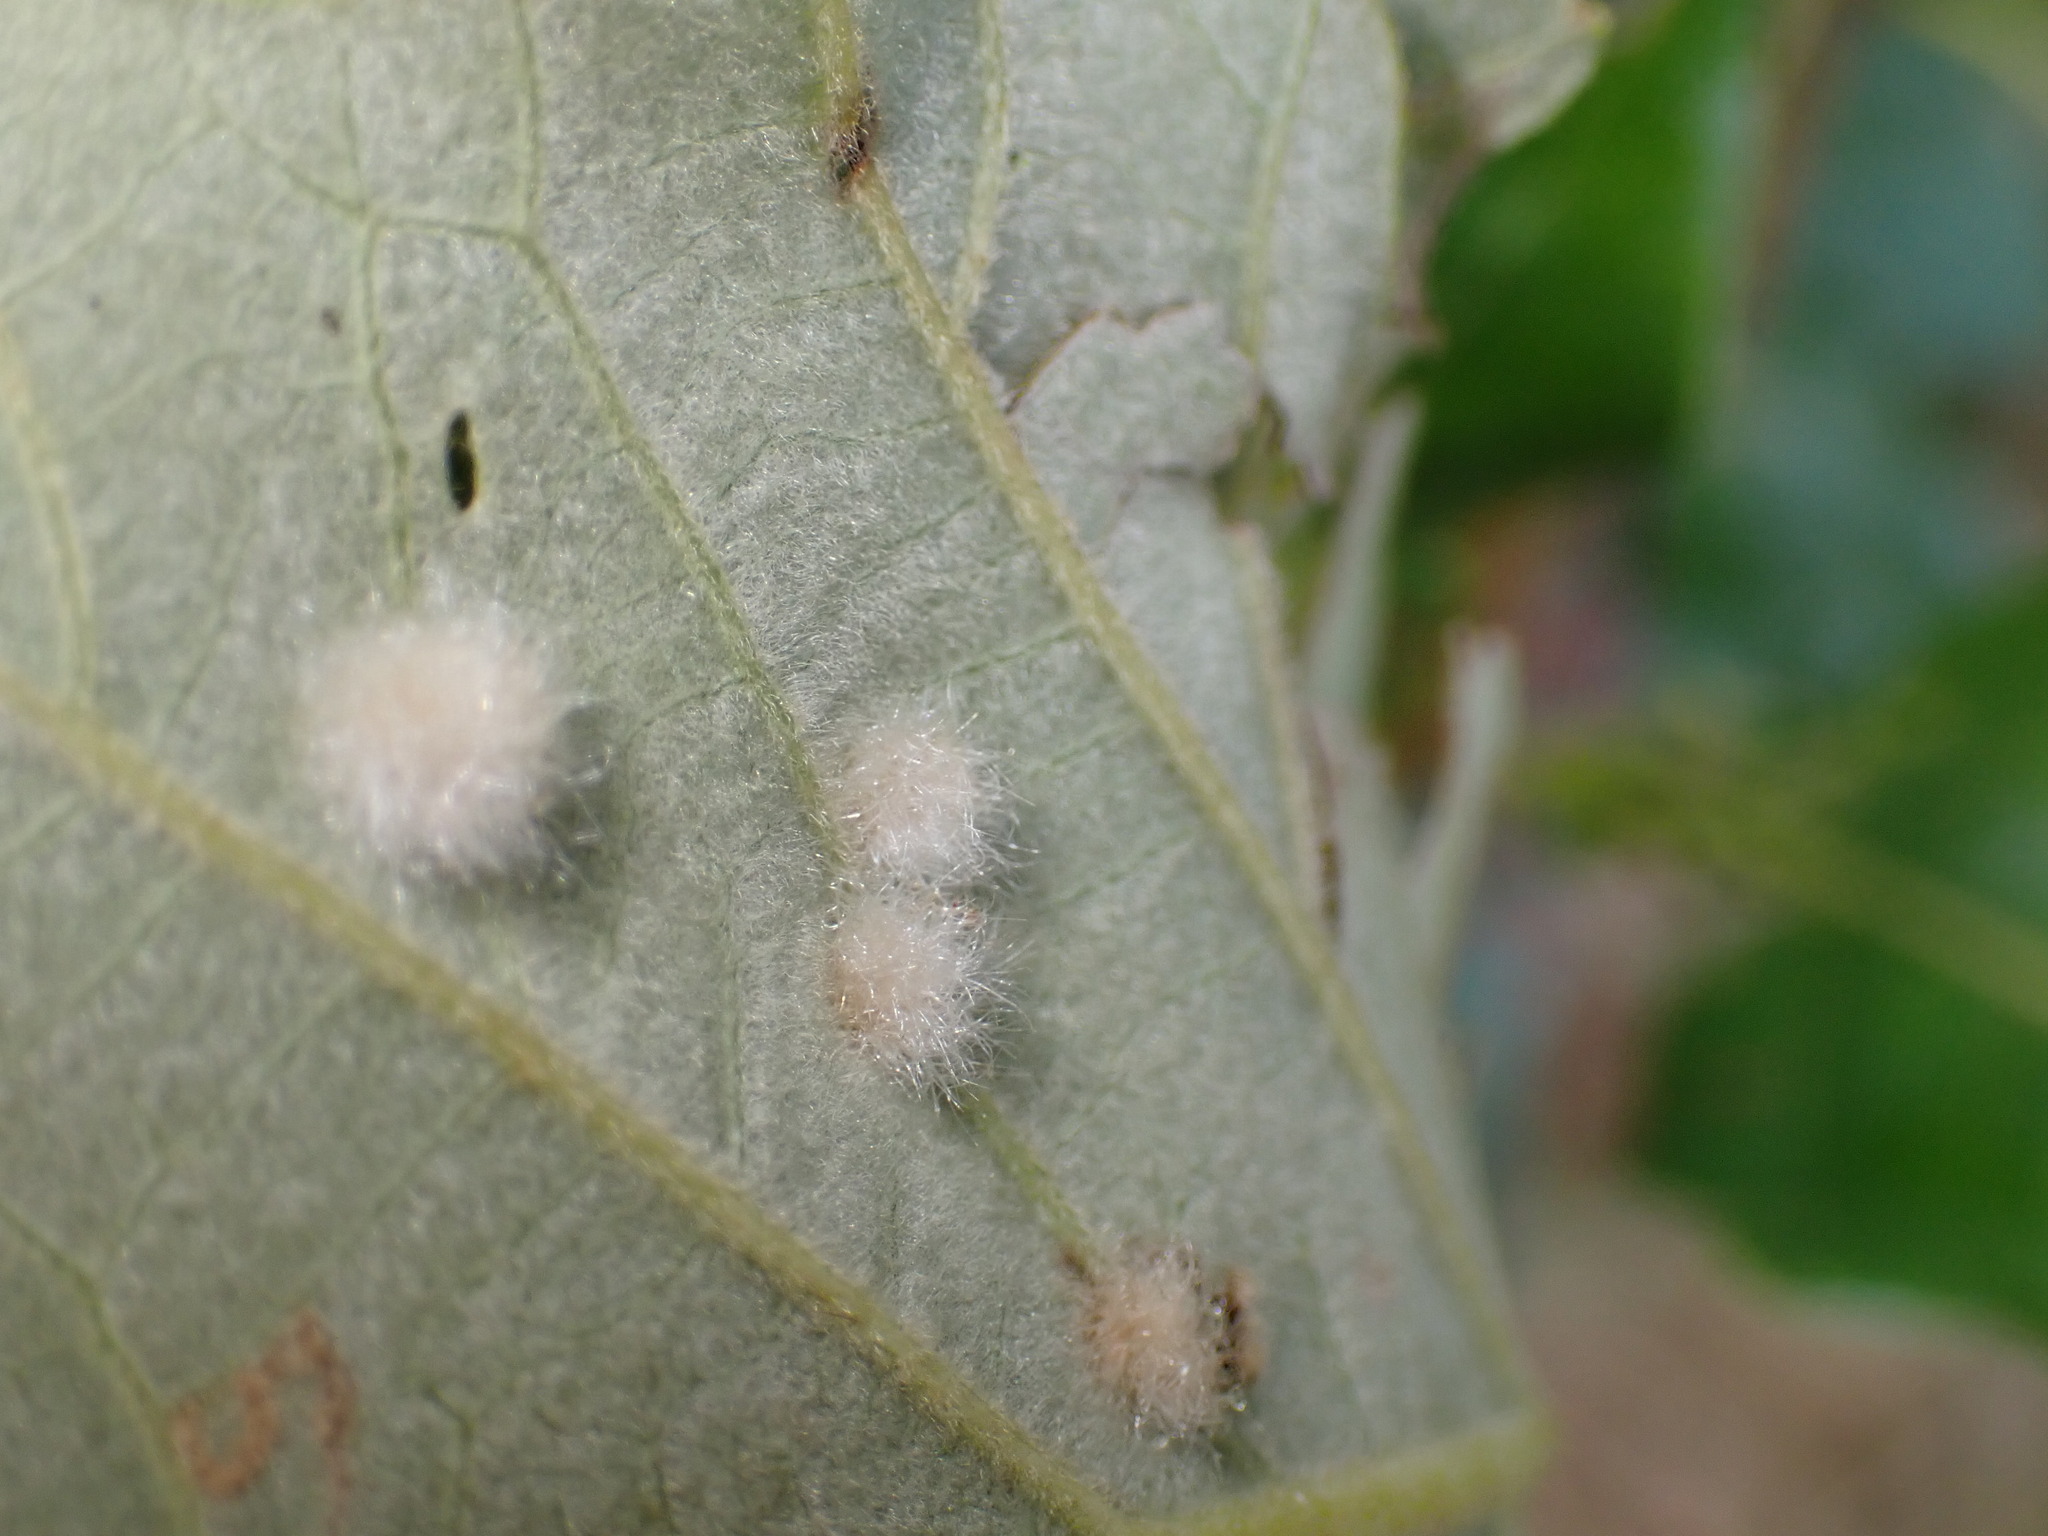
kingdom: Animalia
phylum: Arthropoda
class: Insecta
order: Hymenoptera
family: Cynipidae
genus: Neuroterus
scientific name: Neuroterus quercusverrucarum
